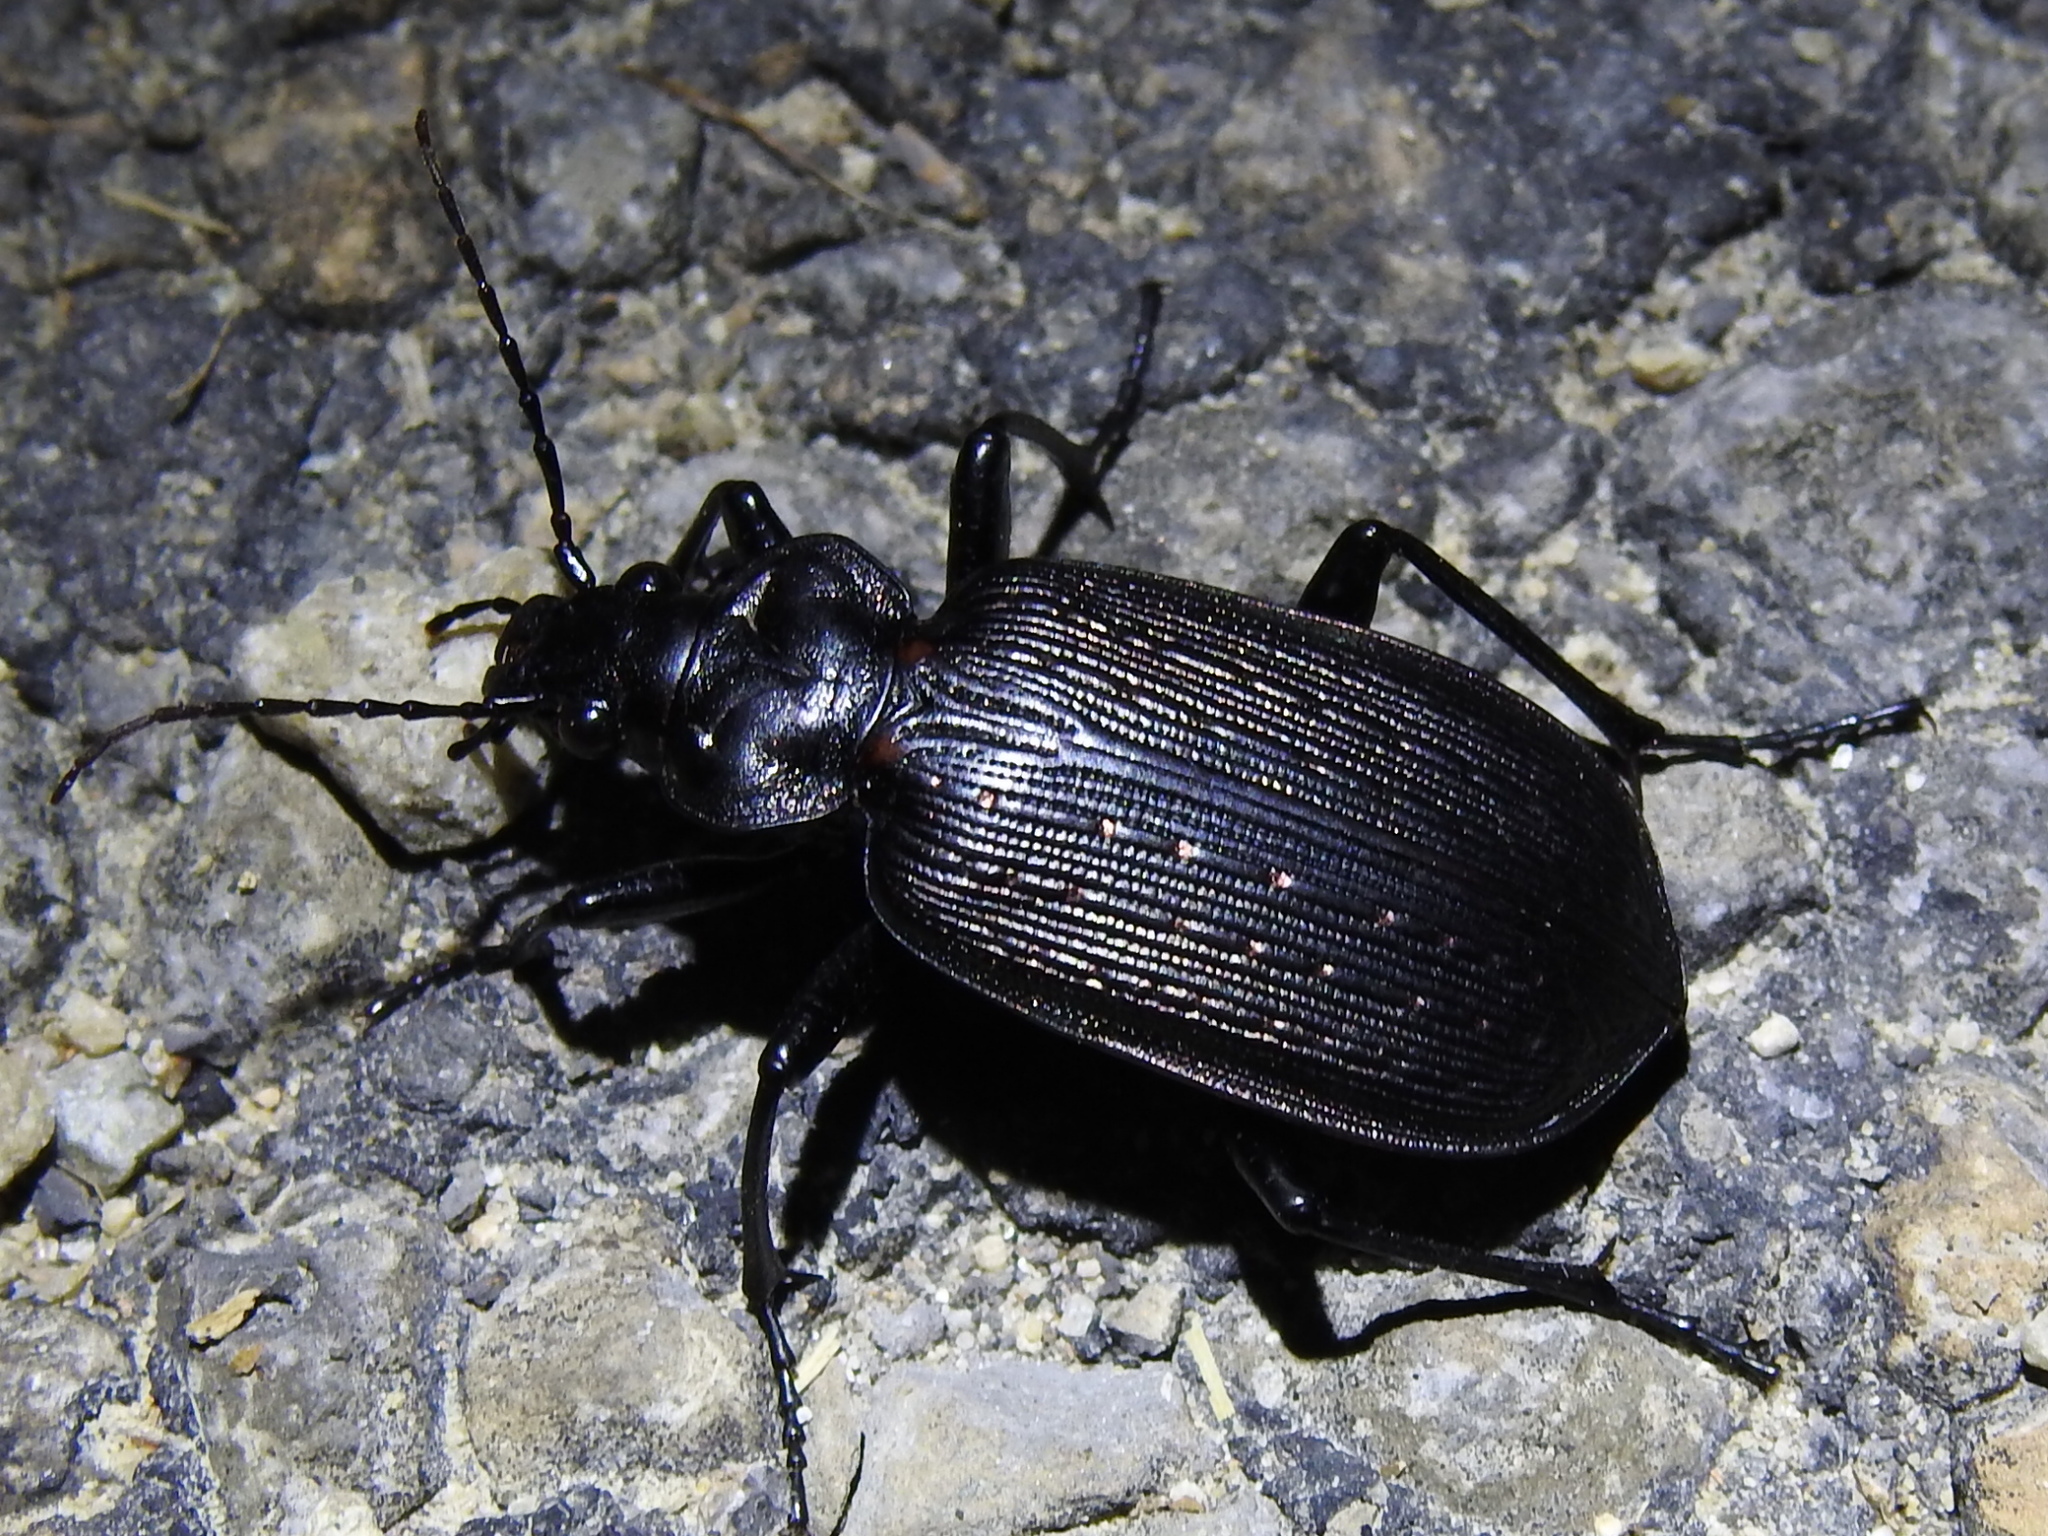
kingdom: Animalia
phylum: Arthropoda
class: Insecta
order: Coleoptera
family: Carabidae
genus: Calosoma
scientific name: Calosoma sayi
